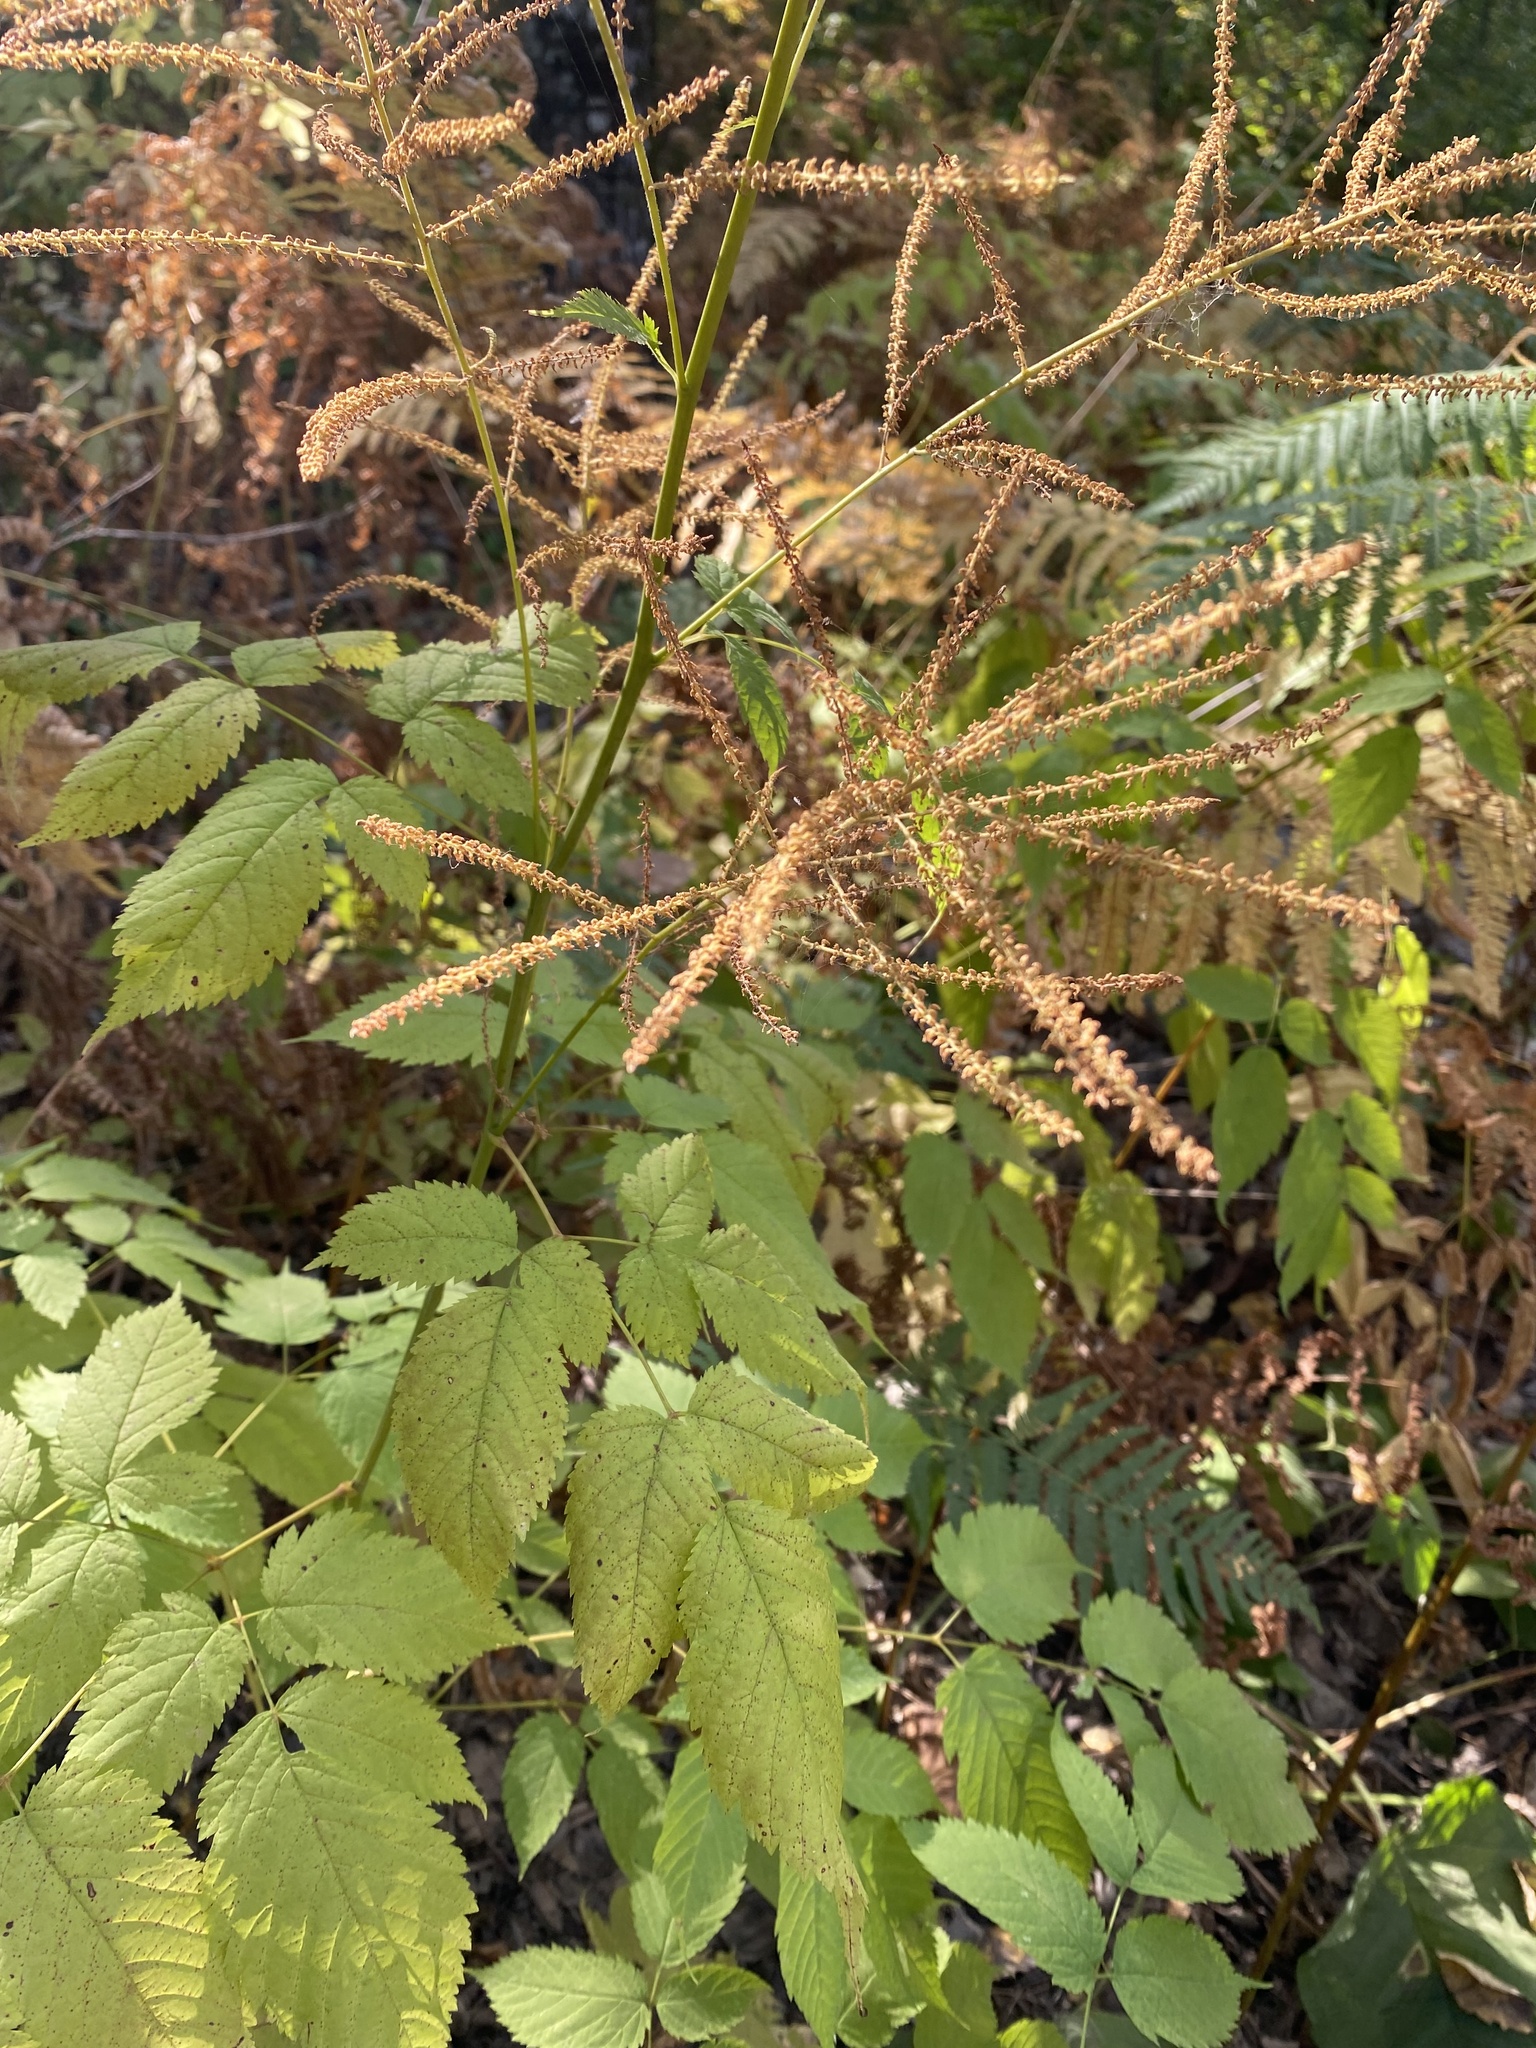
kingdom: Plantae
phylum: Tracheophyta
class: Magnoliopsida
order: Rosales
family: Rosaceae
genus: Aruncus
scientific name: Aruncus dioicus
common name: Buck's-beard
